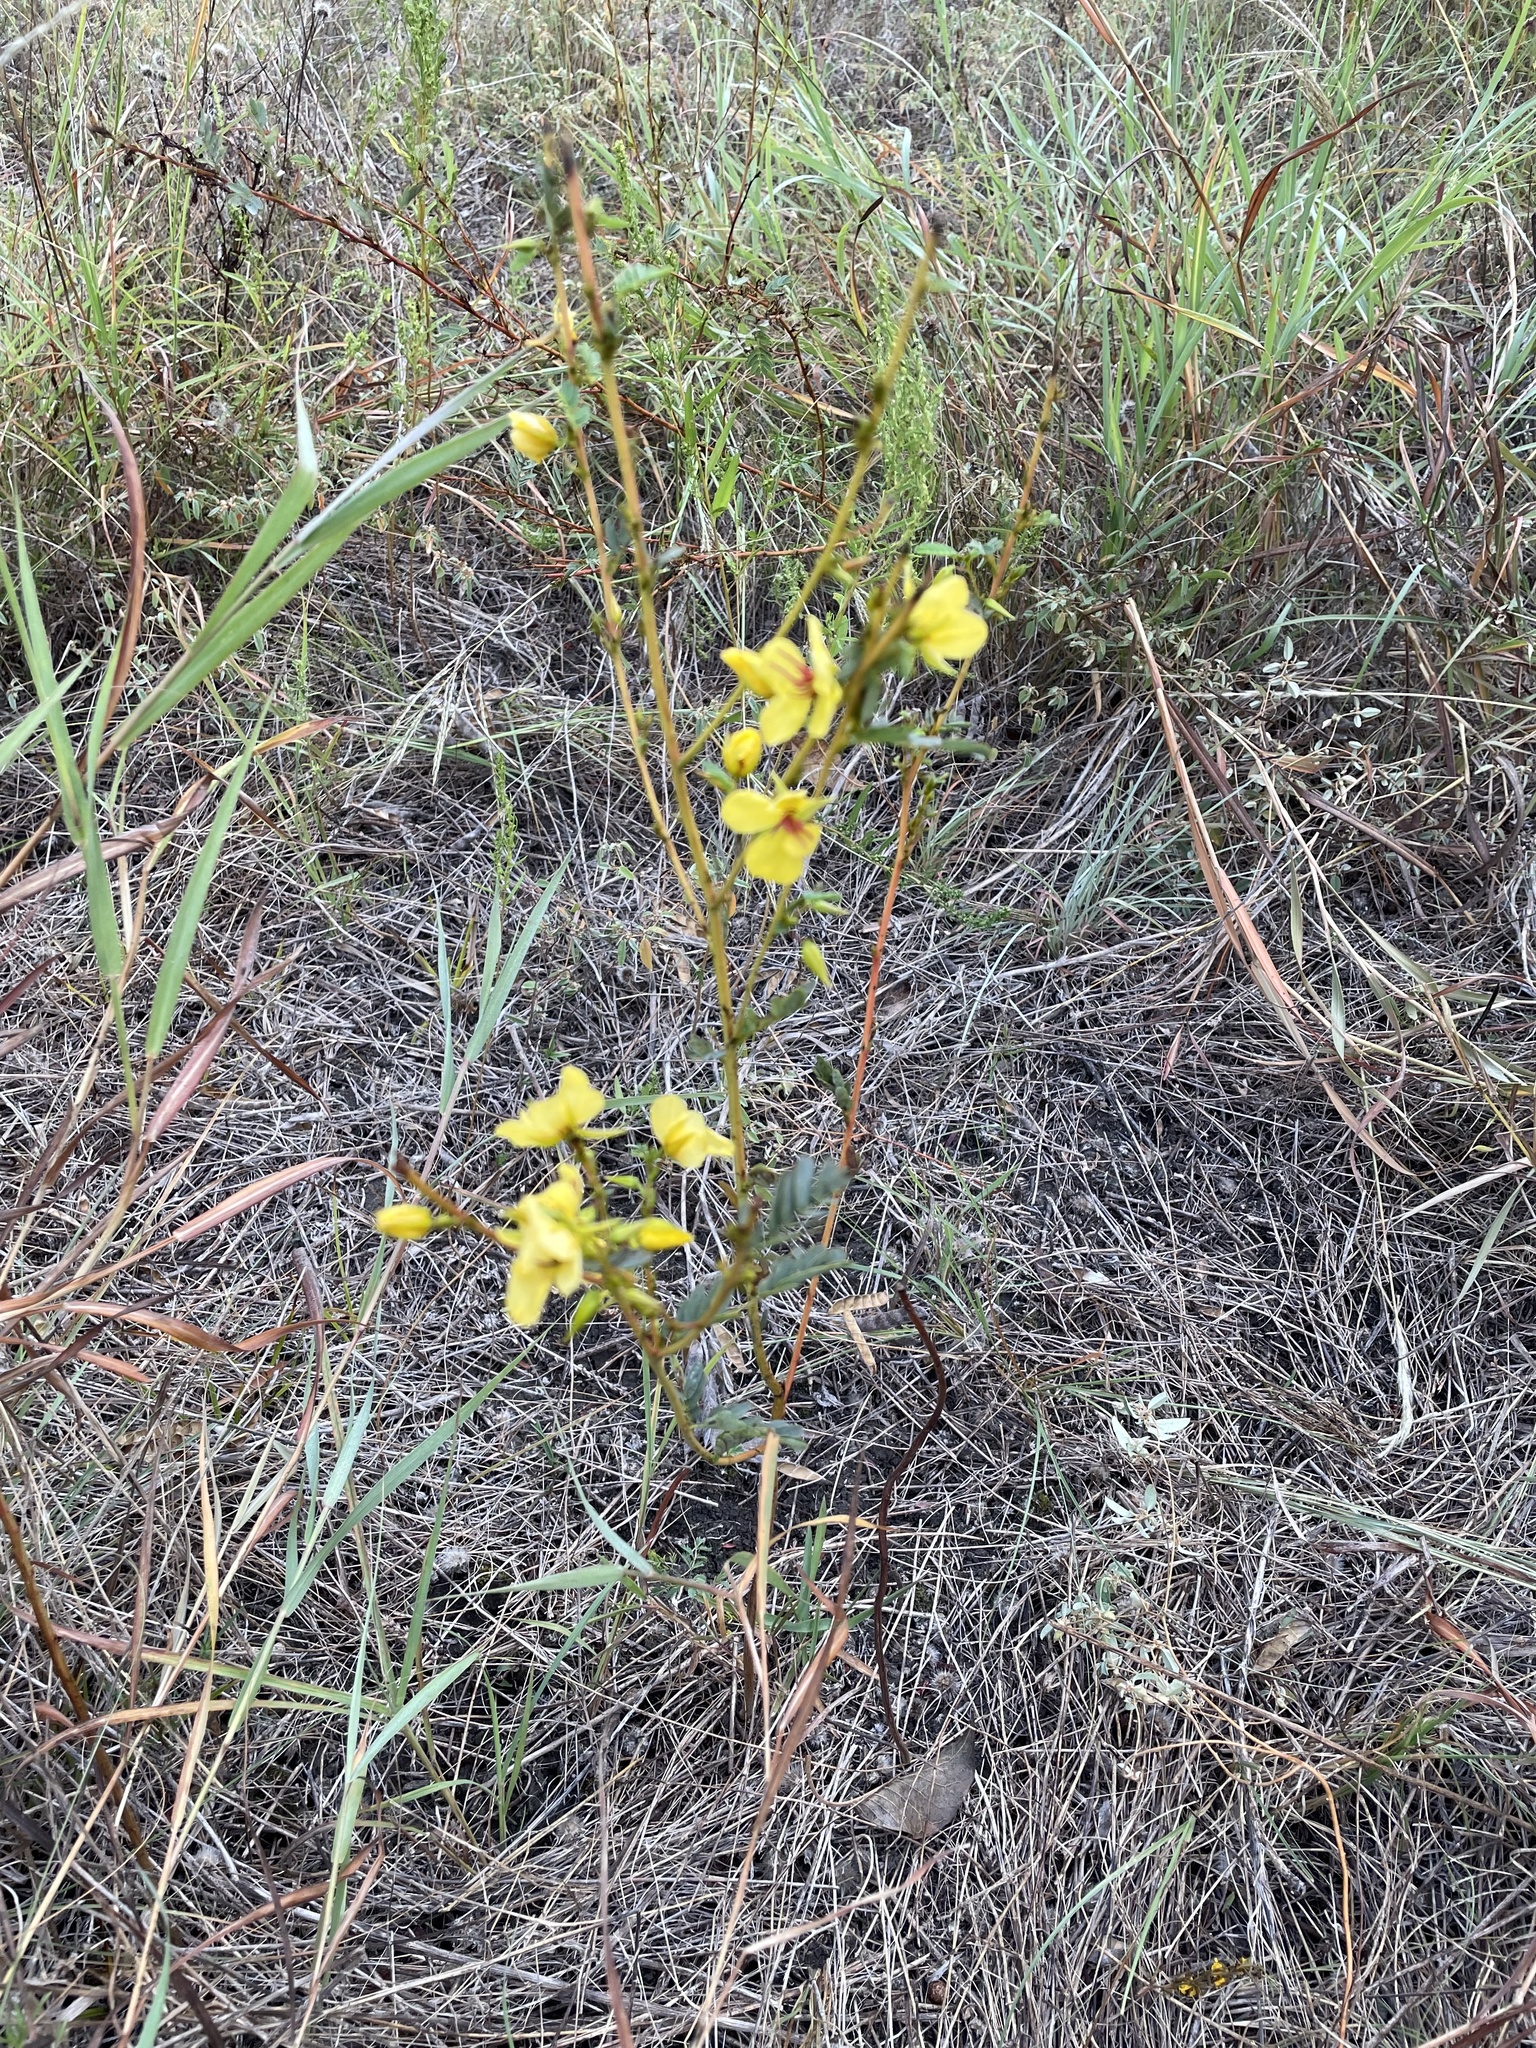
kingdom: Plantae
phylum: Tracheophyta
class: Magnoliopsida
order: Fabales
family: Fabaceae
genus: Chamaecrista
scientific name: Chamaecrista fasciculata
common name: Golden cassia
